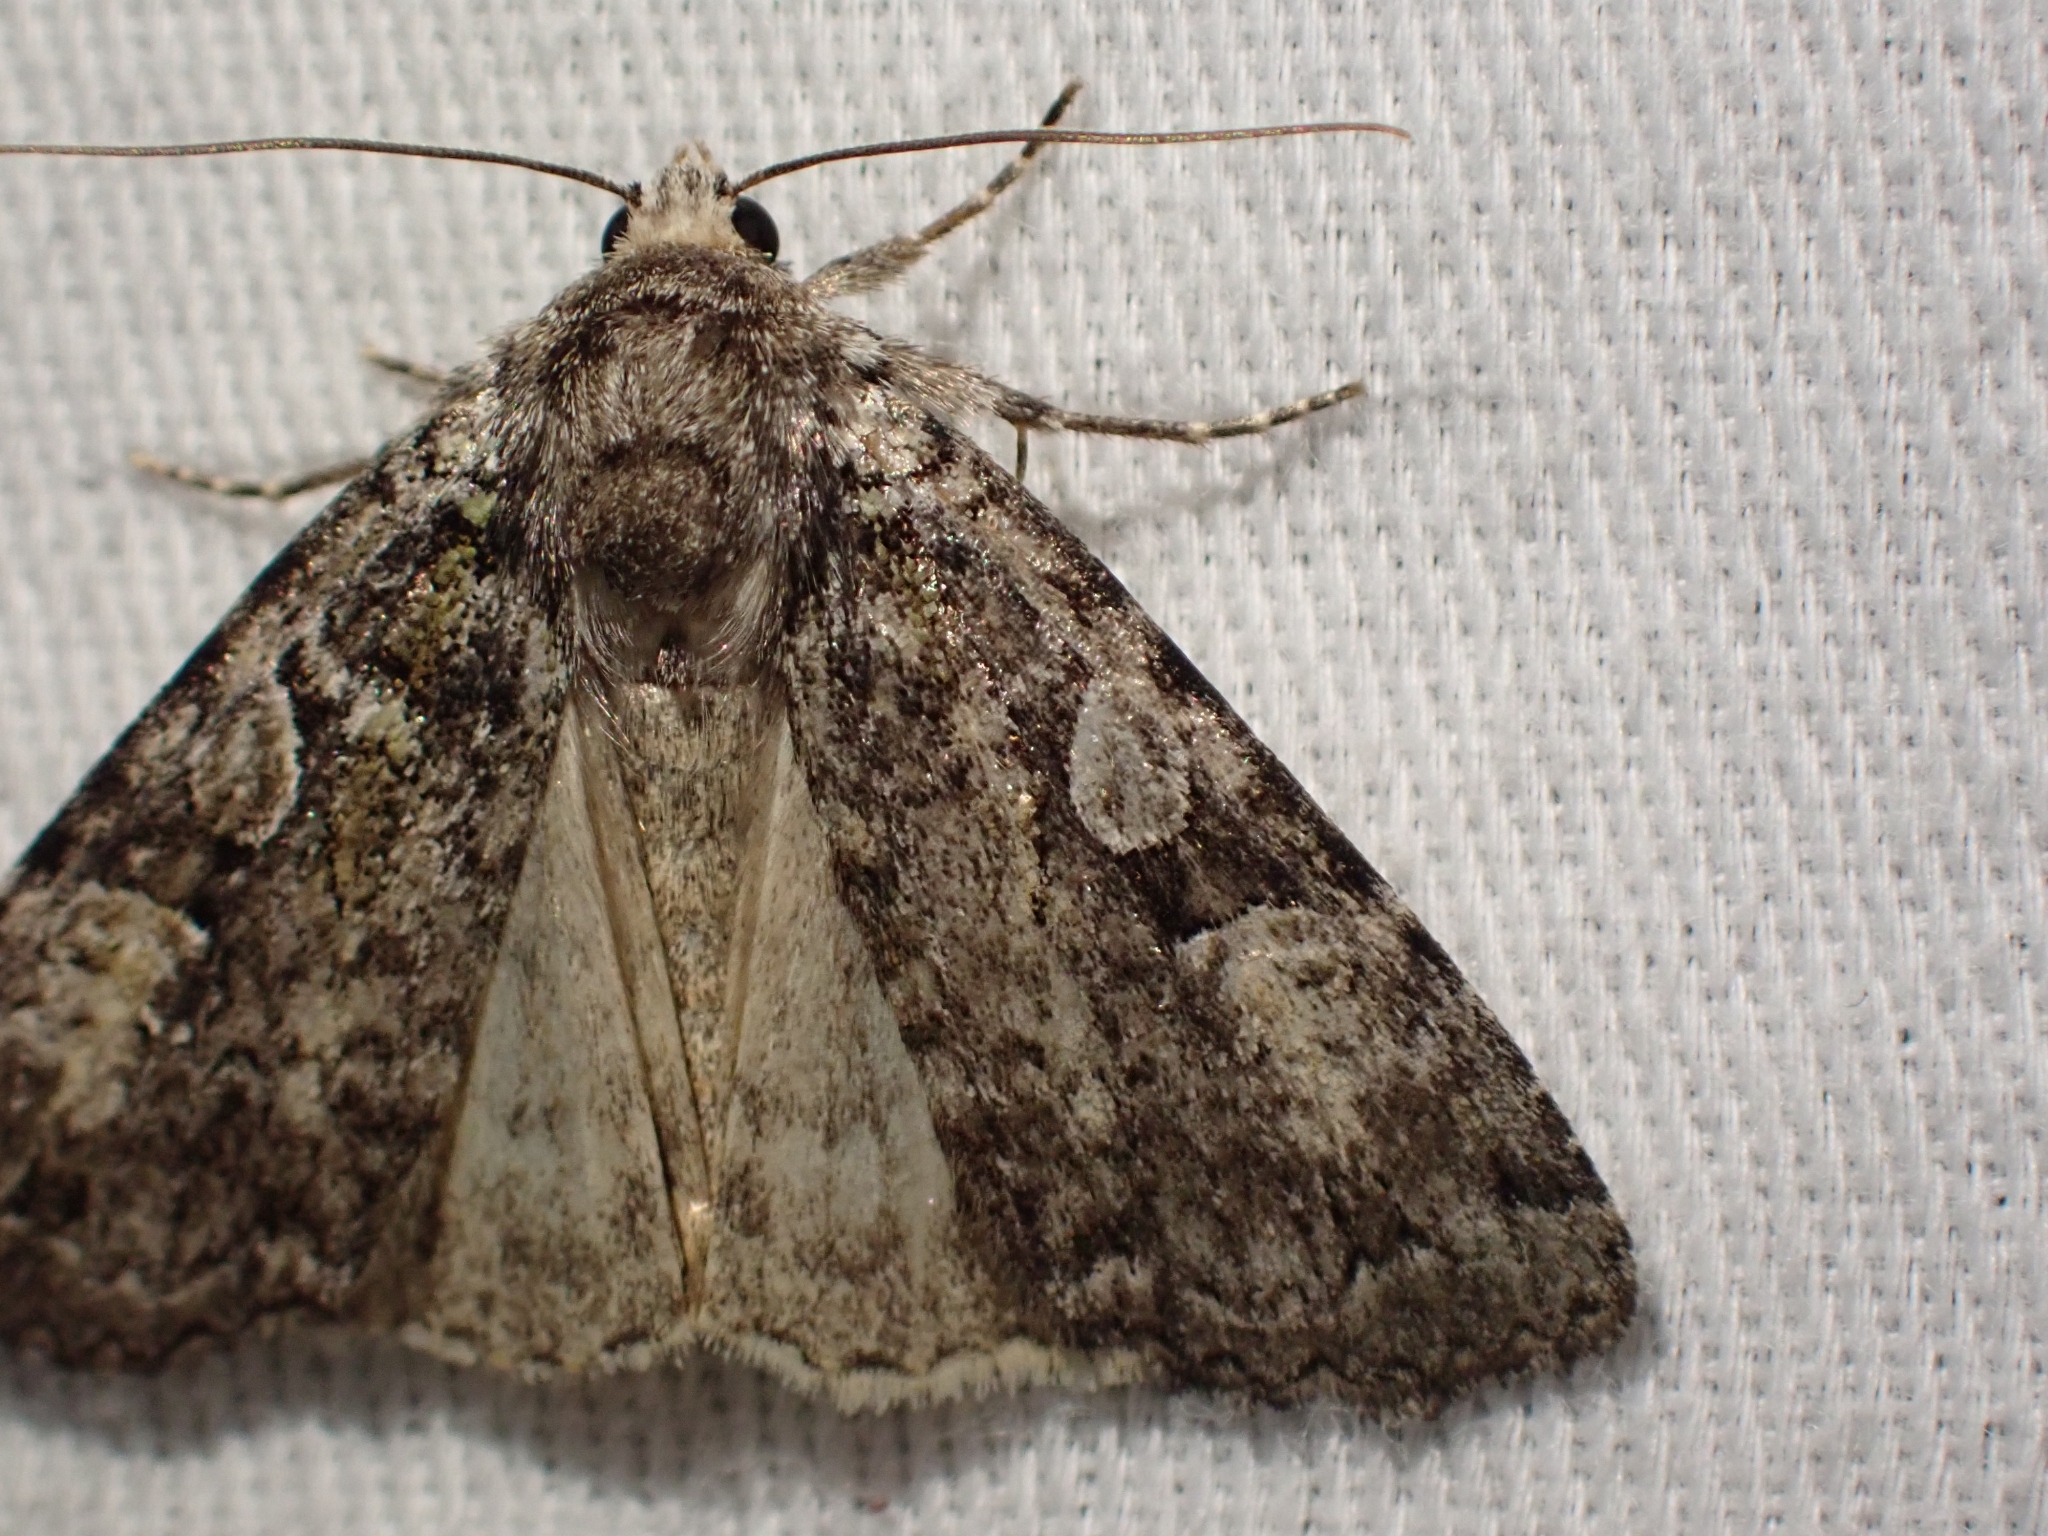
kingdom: Animalia
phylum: Arthropoda
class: Insecta
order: Lepidoptera
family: Noctuidae
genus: Anaplectoides
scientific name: Anaplectoides pressus
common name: Dappled dart
